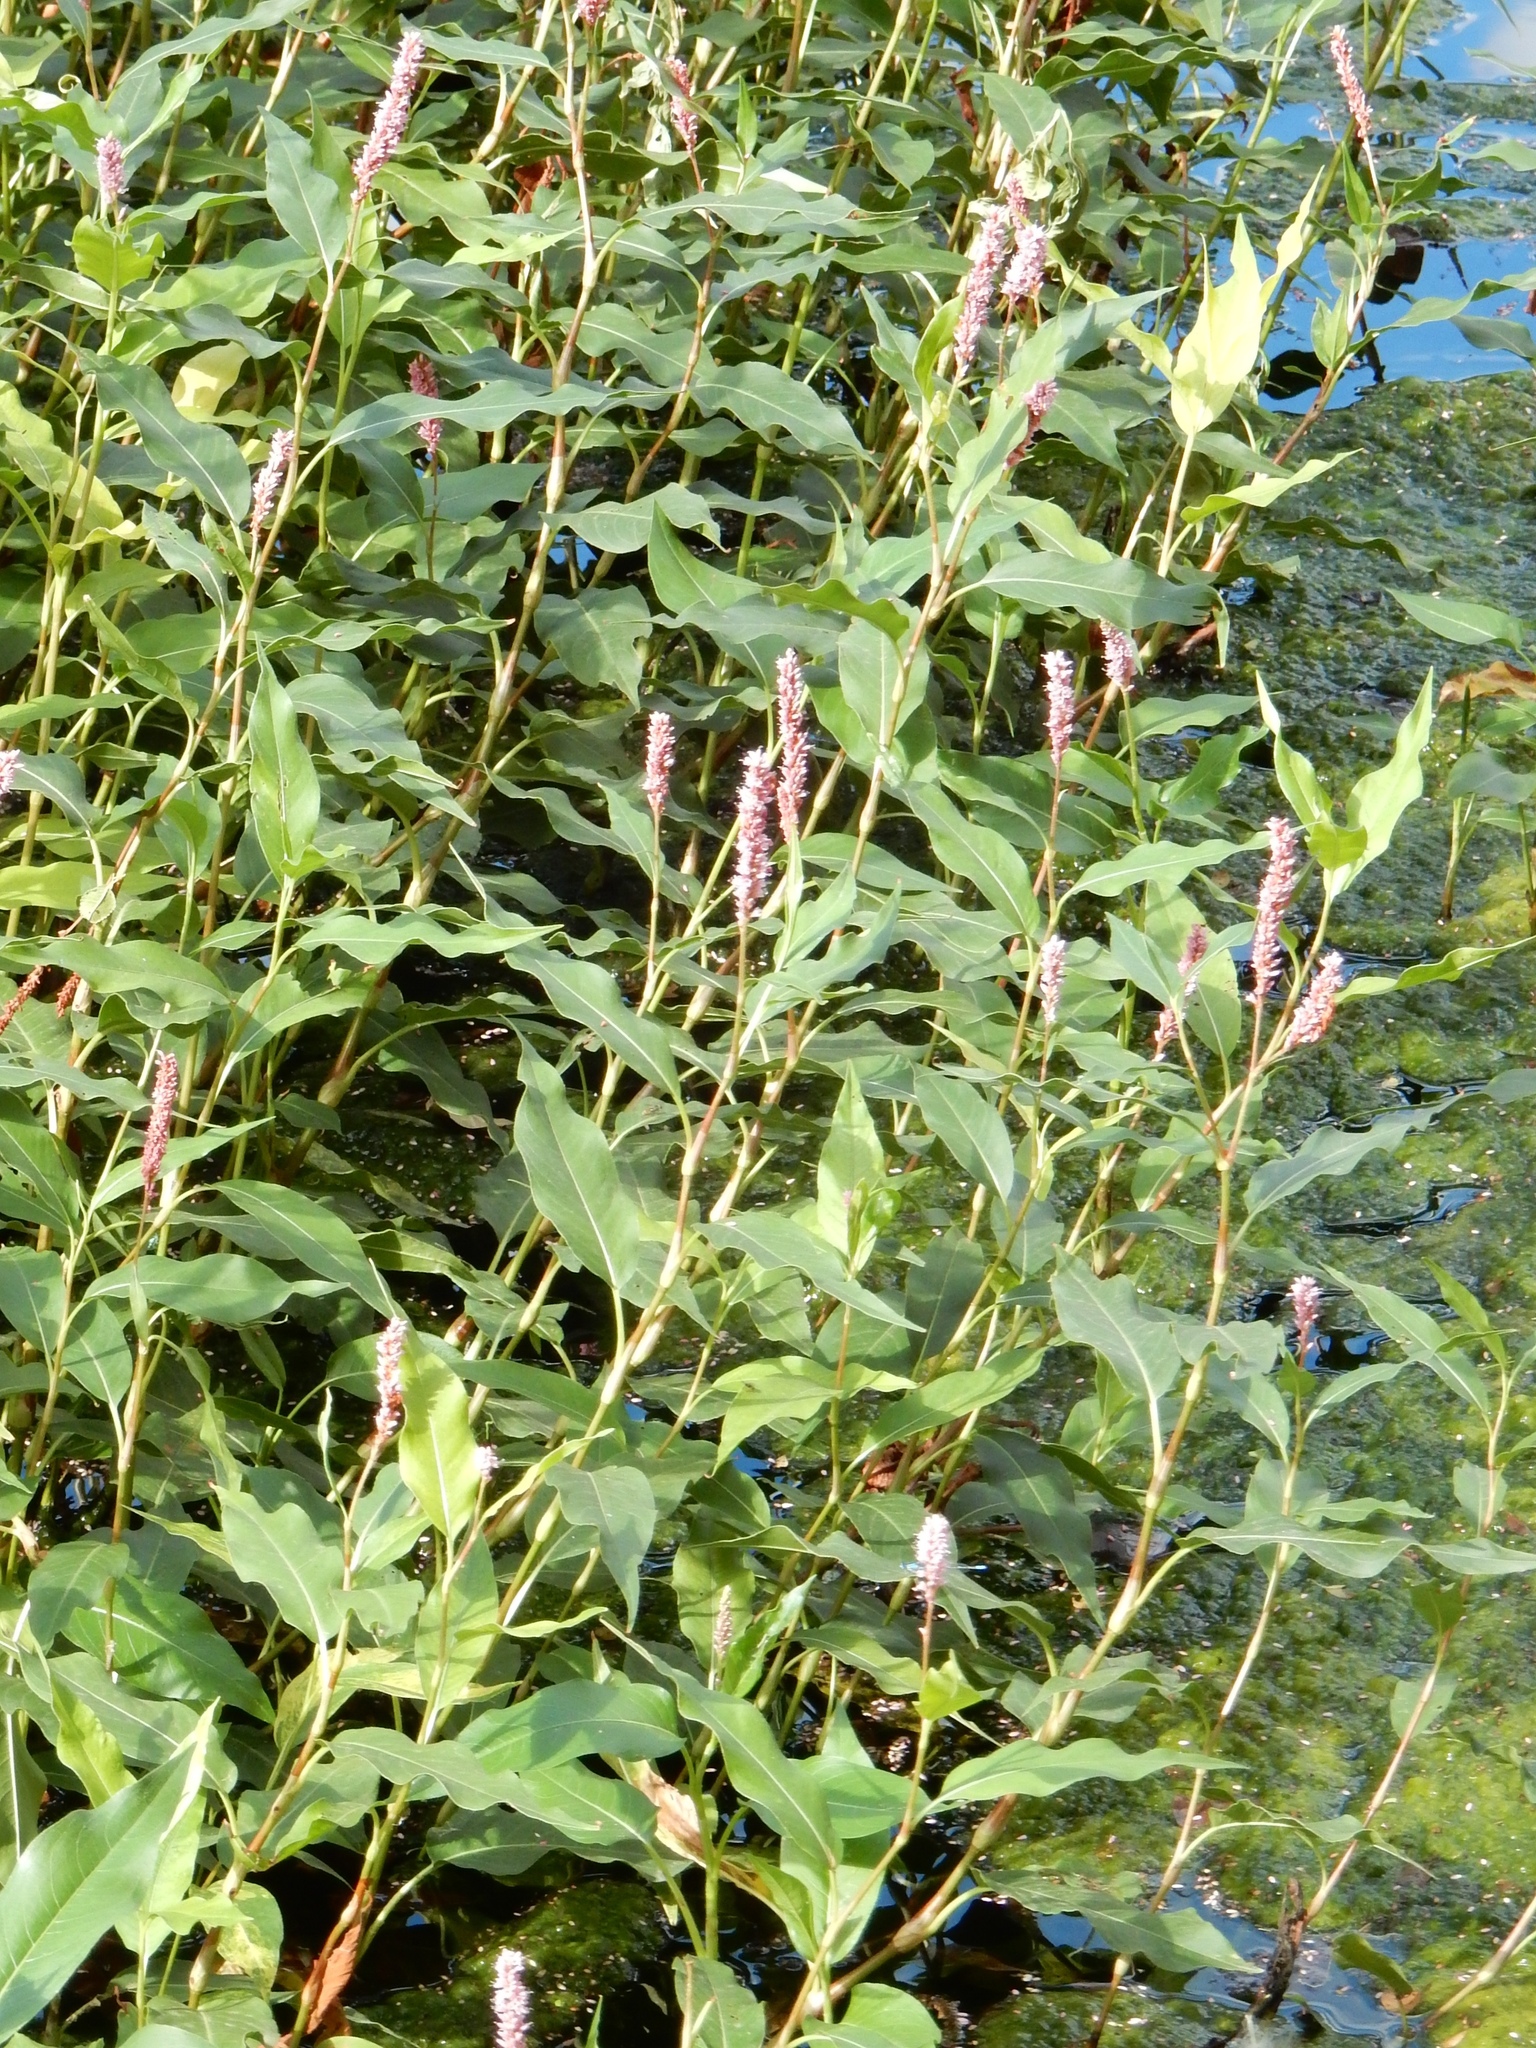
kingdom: Plantae
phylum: Tracheophyta
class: Magnoliopsida
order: Caryophyllales
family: Polygonaceae
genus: Persicaria
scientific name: Persicaria amphibia
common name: Amphibious bistort
